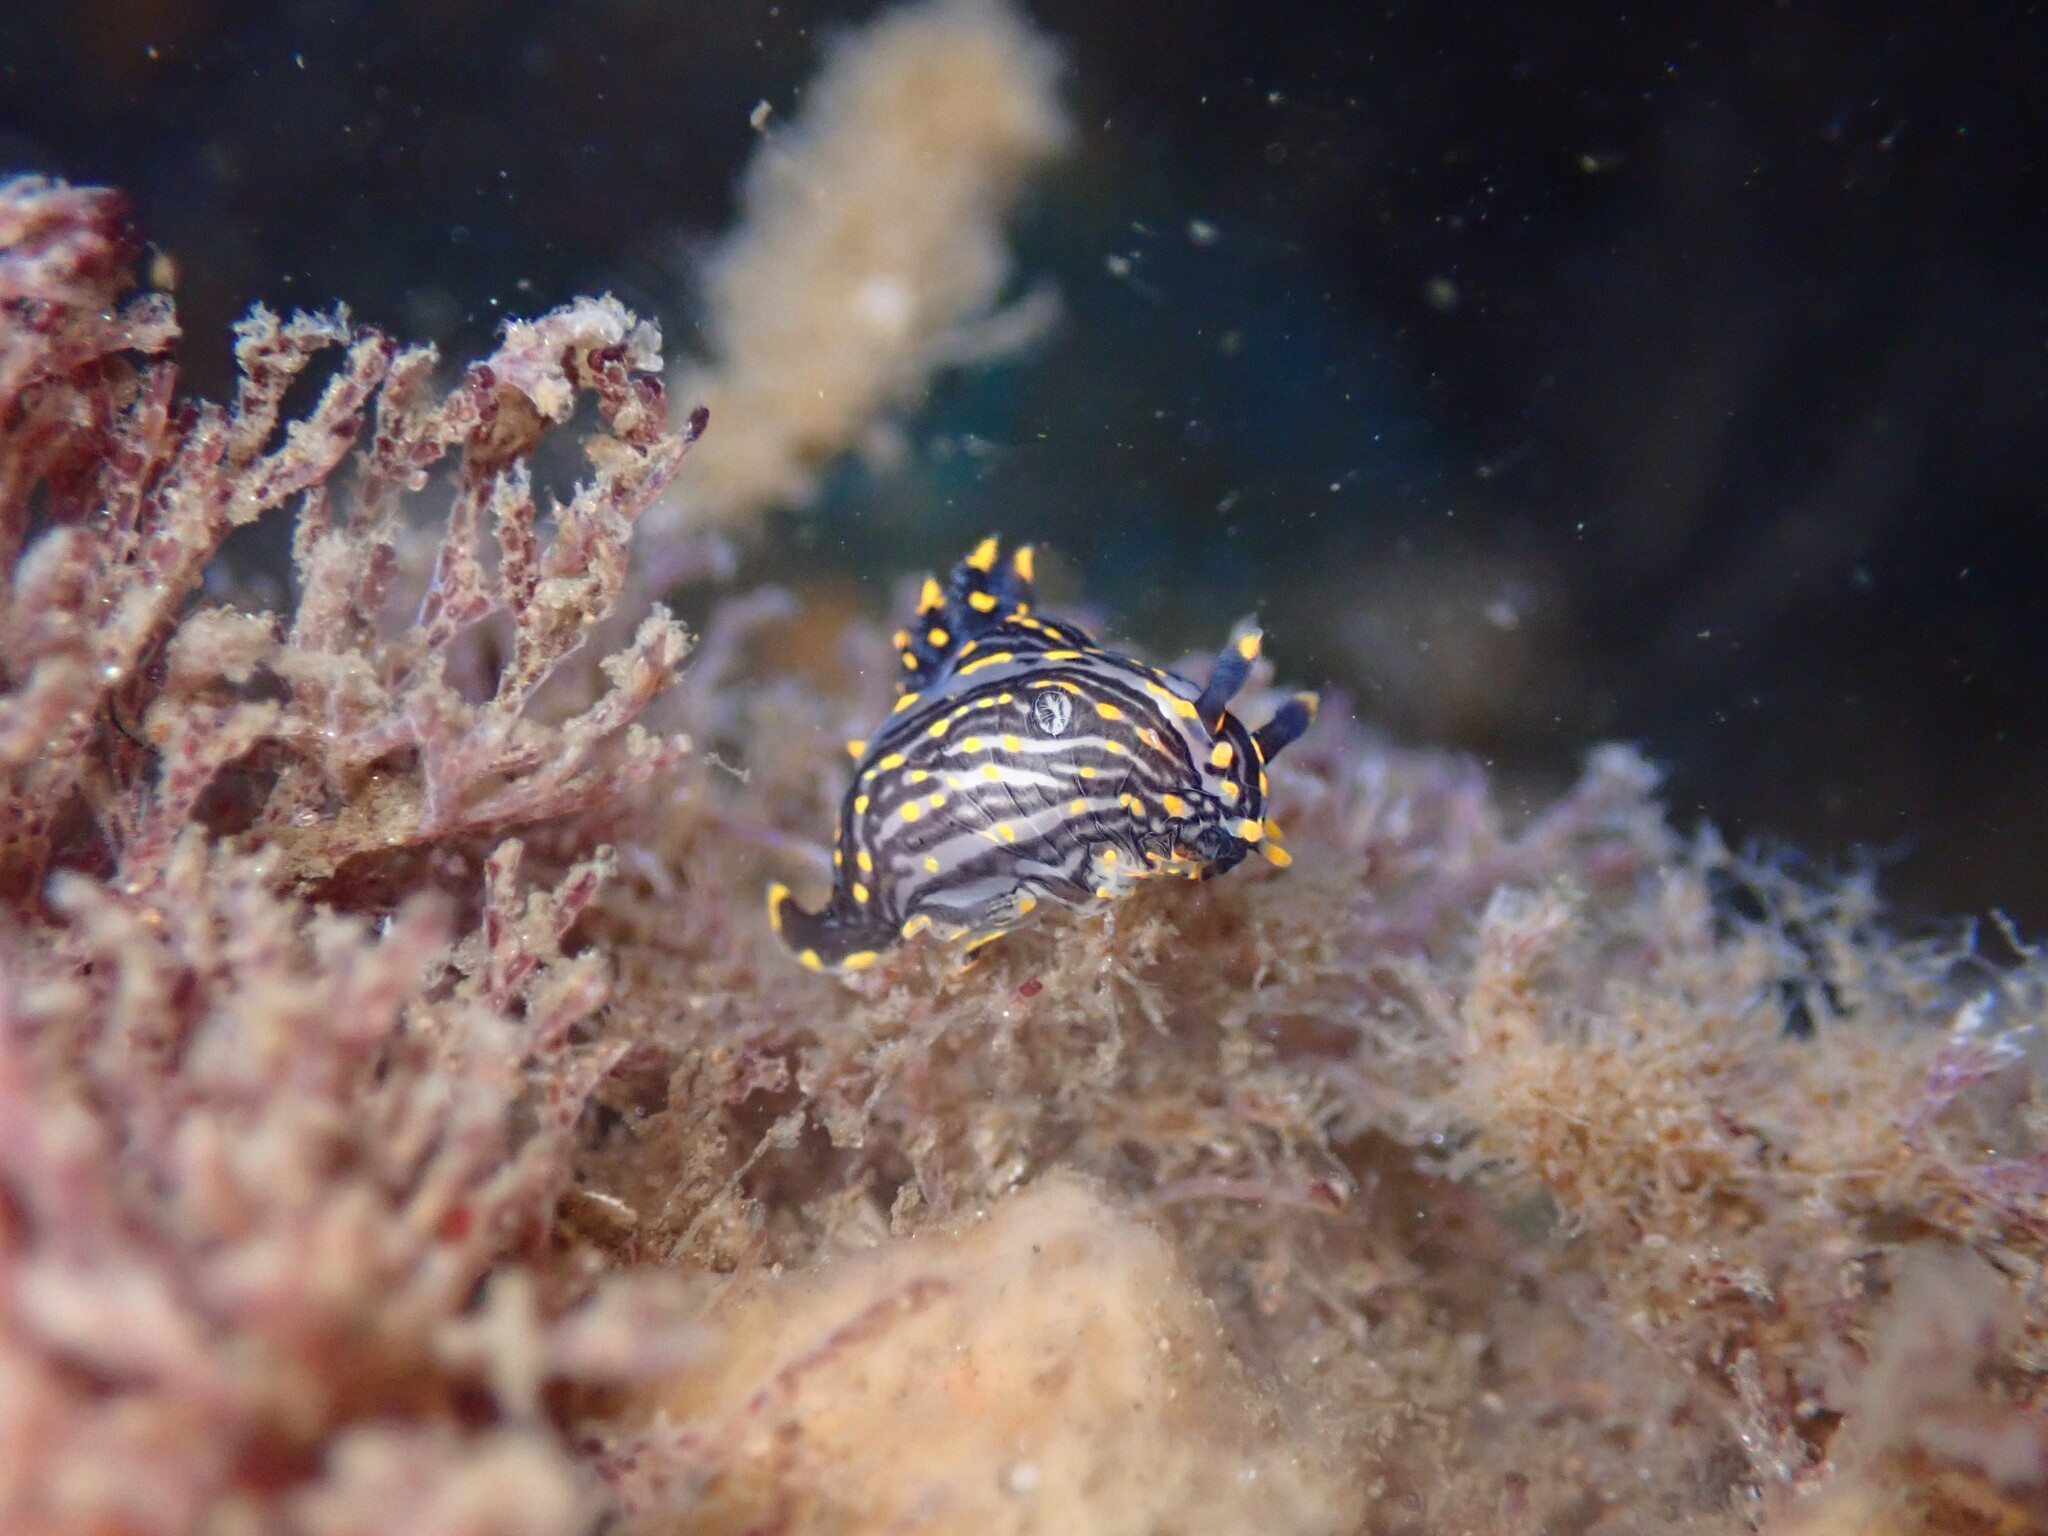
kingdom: Animalia
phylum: Mollusca
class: Gastropoda
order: Nudibranchia
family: Polyceridae
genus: Polycera
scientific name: Polycera atra
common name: Orange-spike polycera
